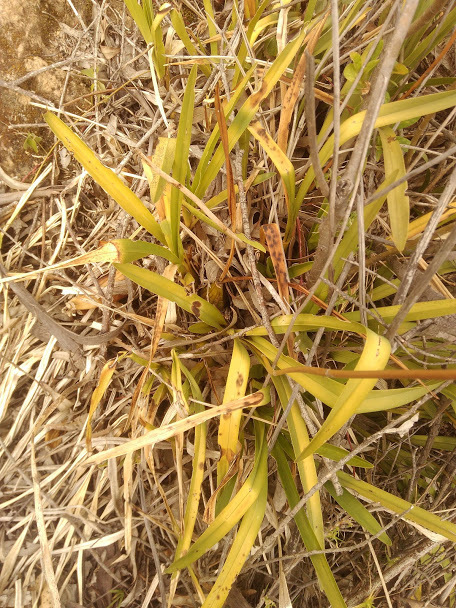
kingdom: Plantae
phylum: Tracheophyta
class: Liliopsida
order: Asparagales
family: Orchidaceae
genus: Cyrtochilum
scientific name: Cyrtochilum densiflorum
